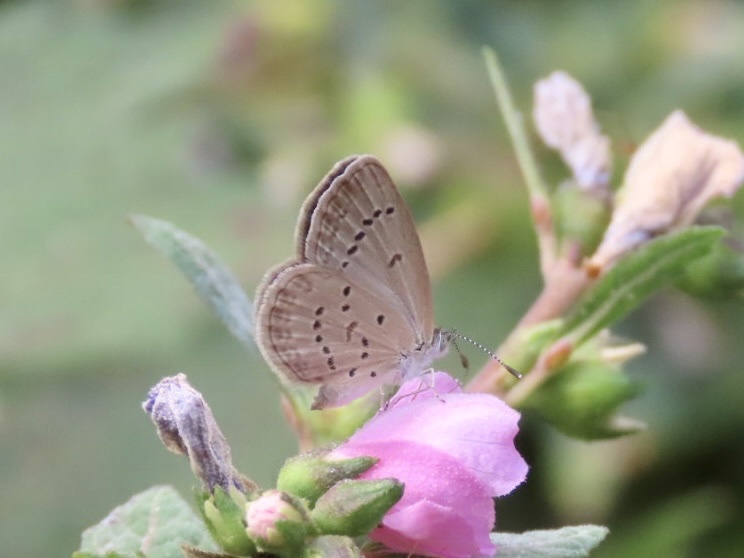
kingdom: Animalia
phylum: Arthropoda
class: Insecta
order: Lepidoptera
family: Lycaenidae
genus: Zizina
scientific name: Zizina otis
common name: Lesser grass blue
